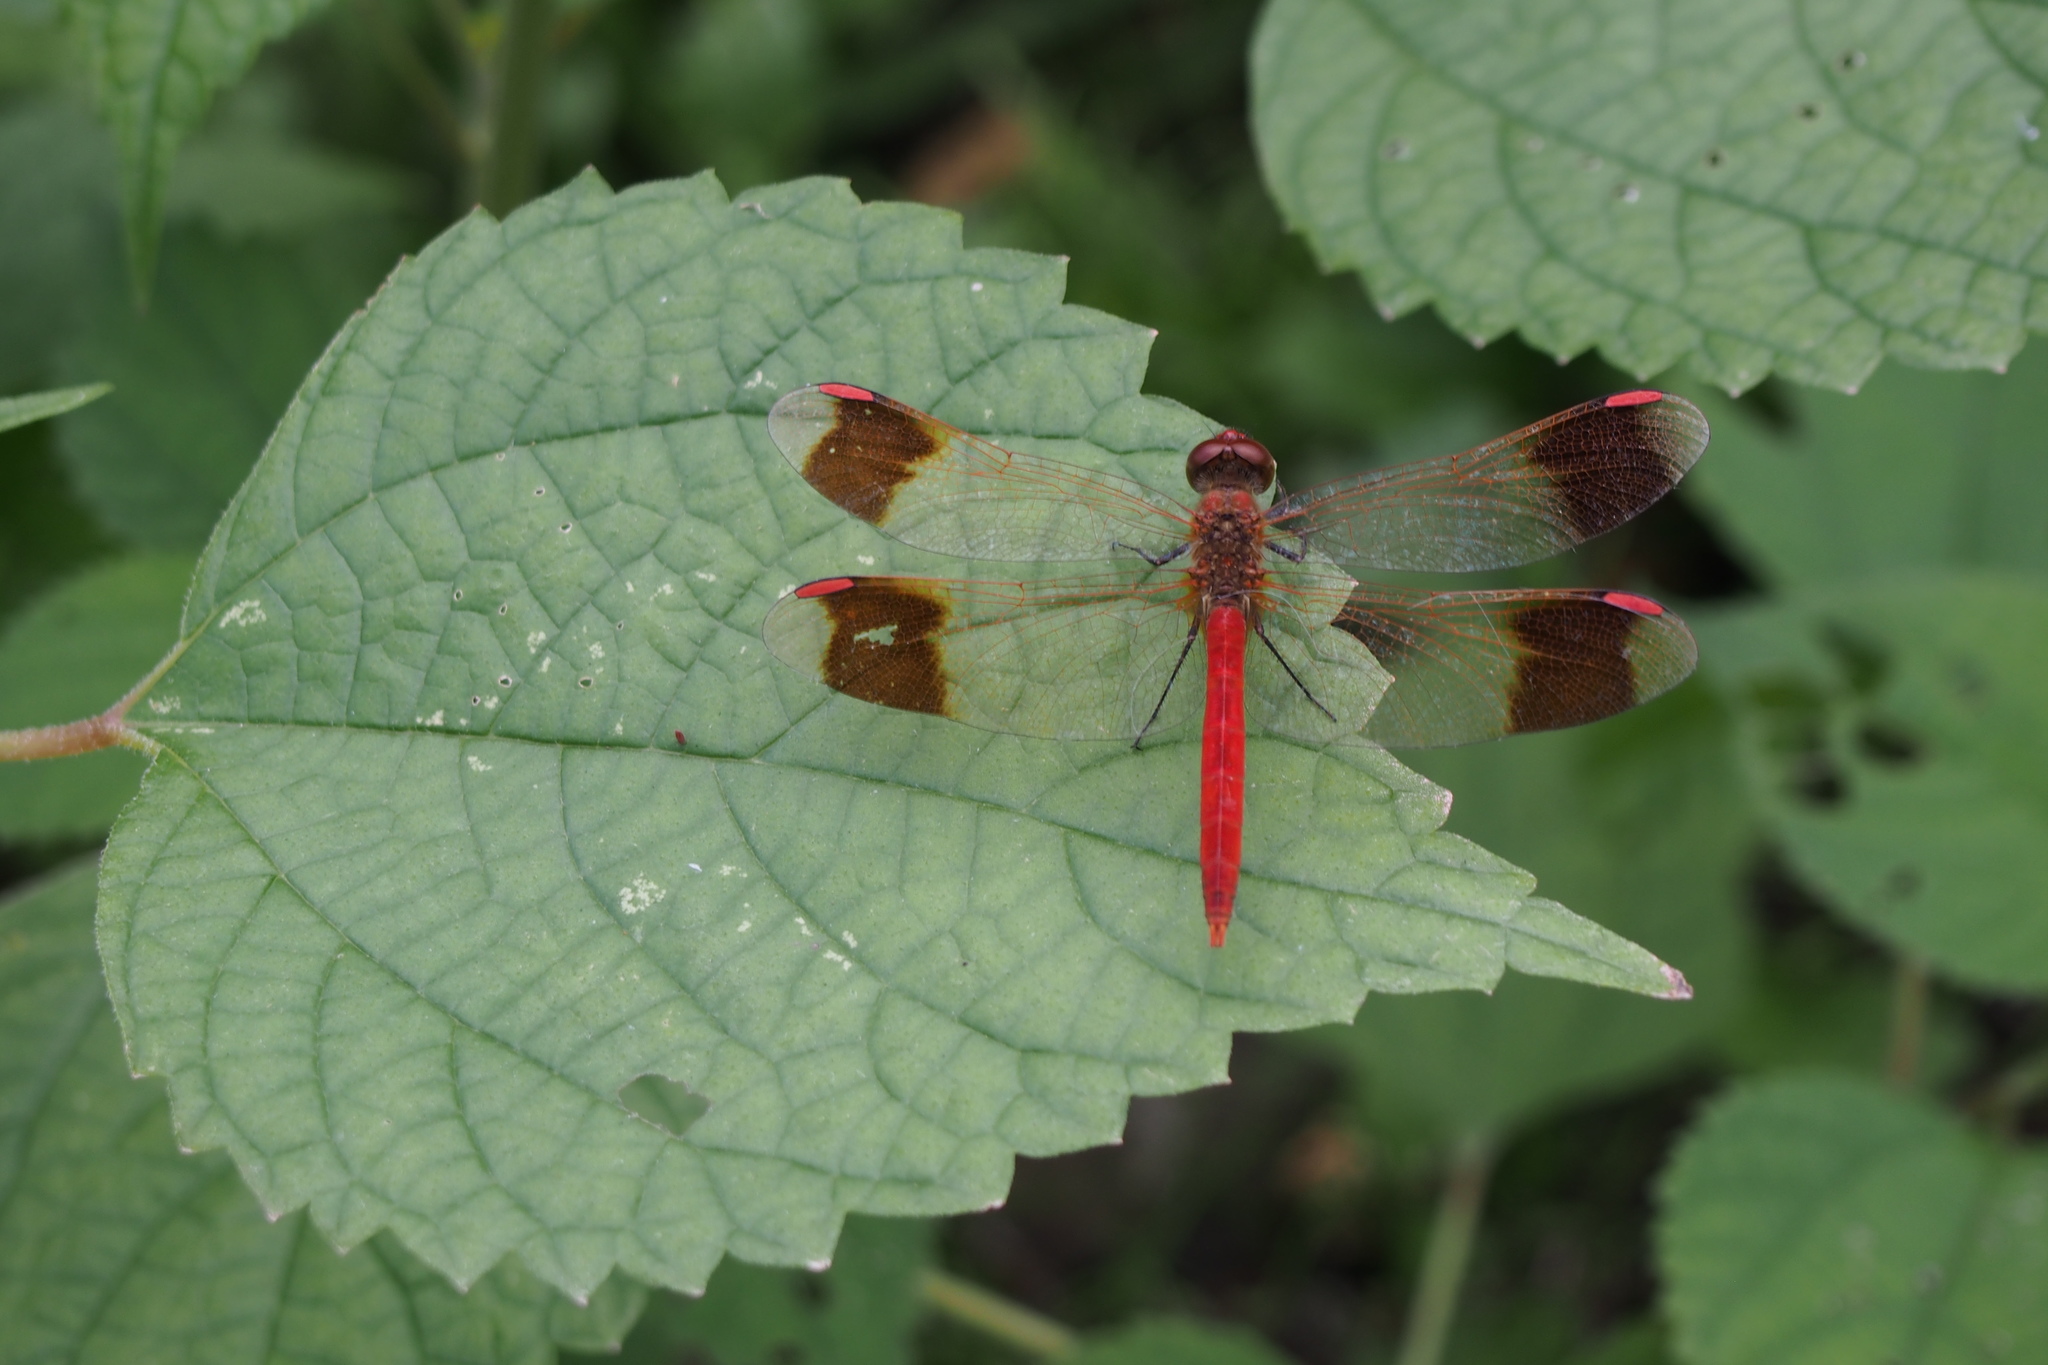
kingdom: Animalia
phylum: Arthropoda
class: Insecta
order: Odonata
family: Libellulidae
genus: Sympetrum
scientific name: Sympetrum pedemontanum
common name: Banded darter
